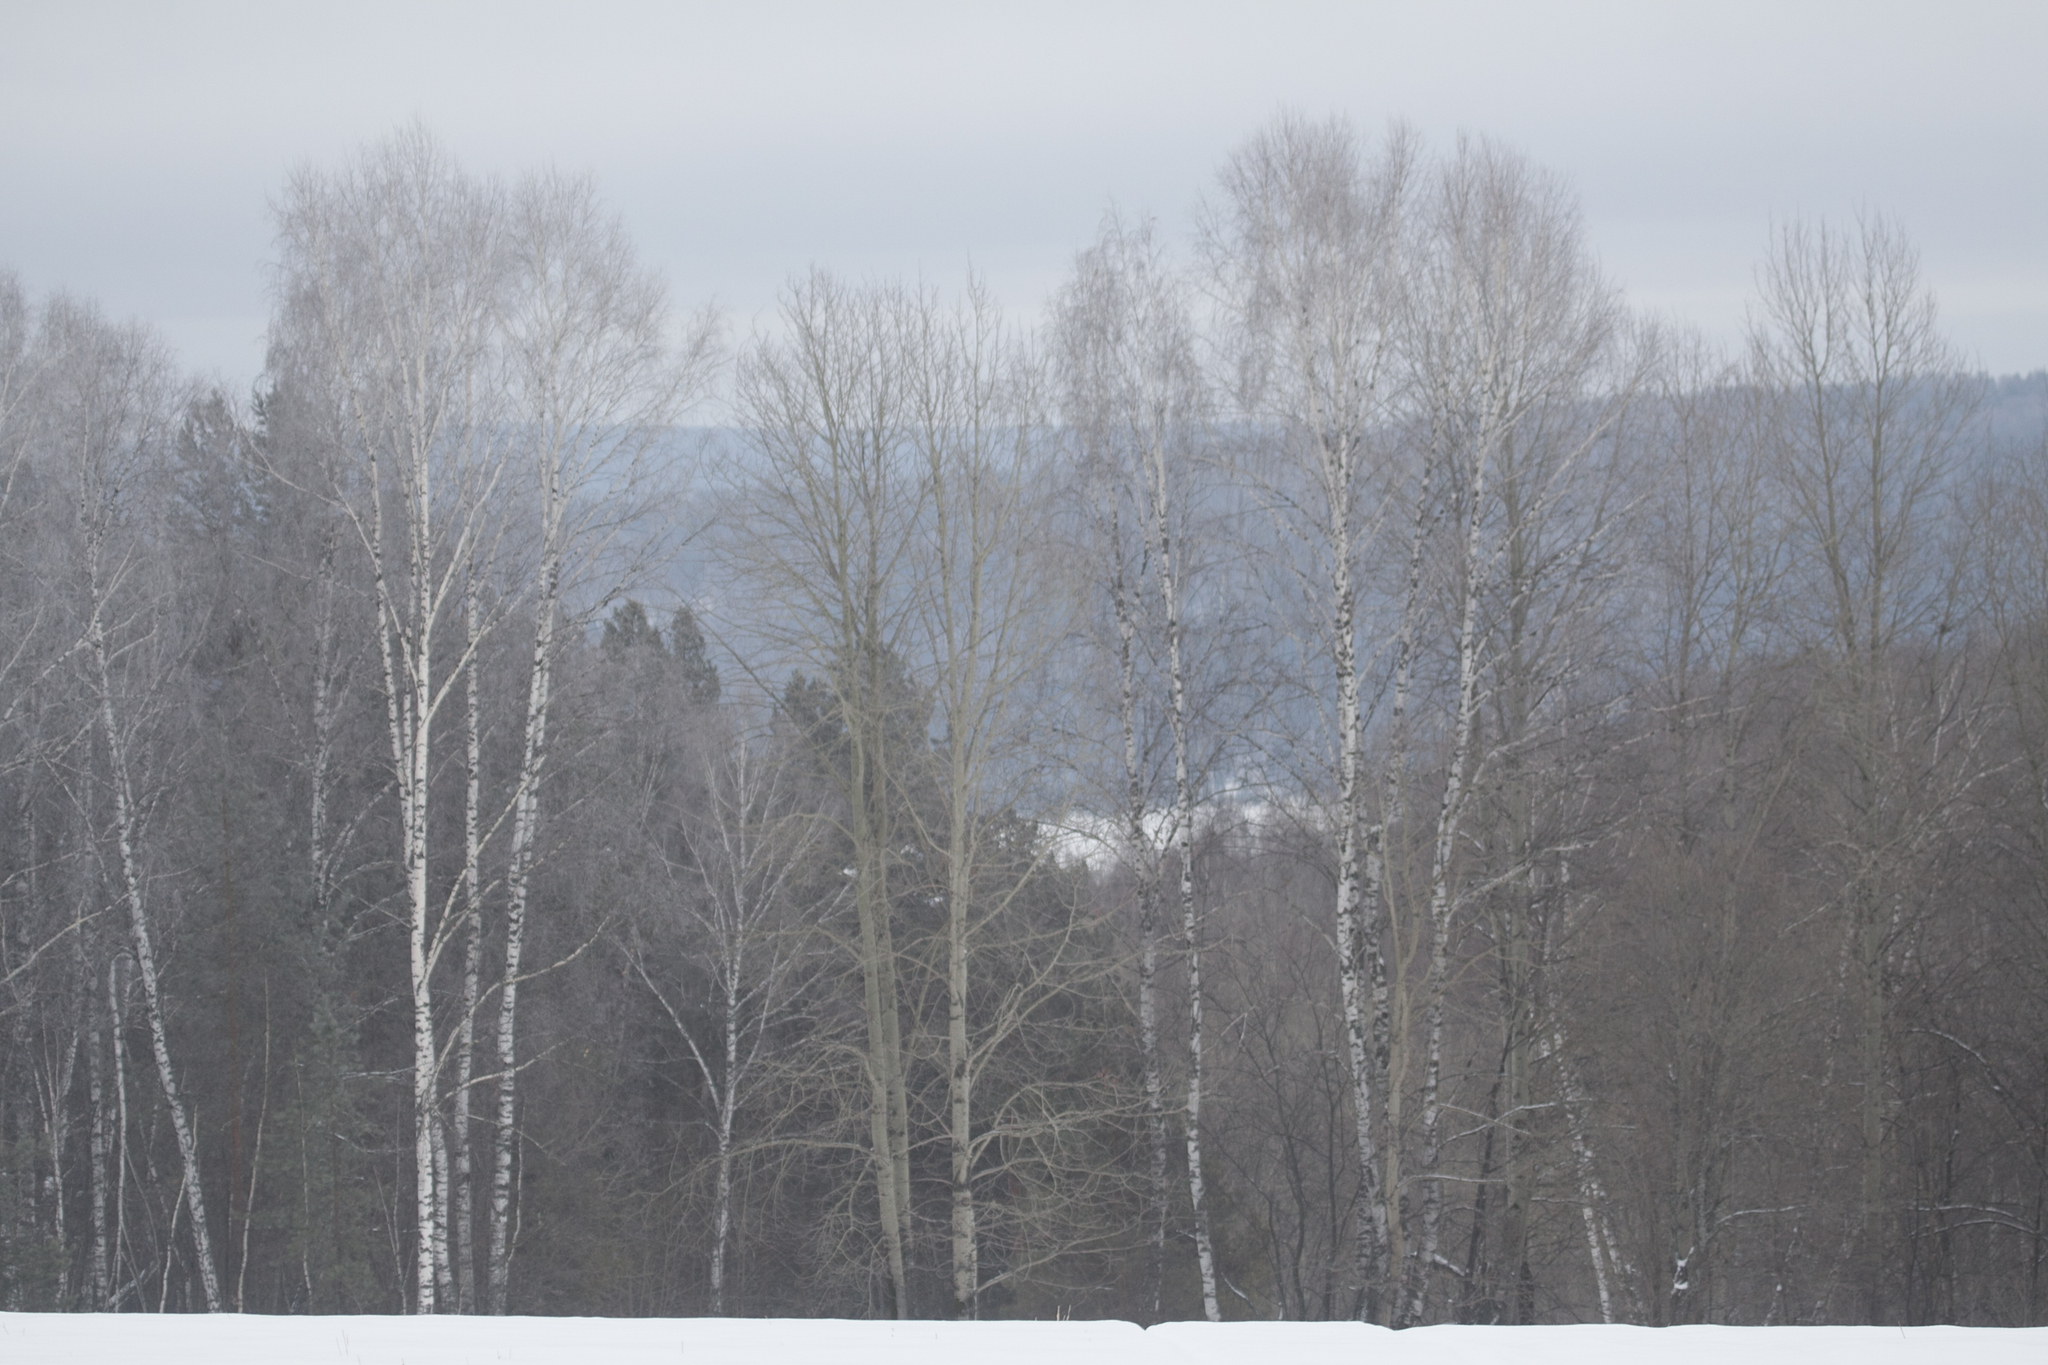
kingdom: Plantae
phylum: Tracheophyta
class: Magnoliopsida
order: Malpighiales
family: Salicaceae
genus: Populus
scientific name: Populus tremula
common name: European aspen
